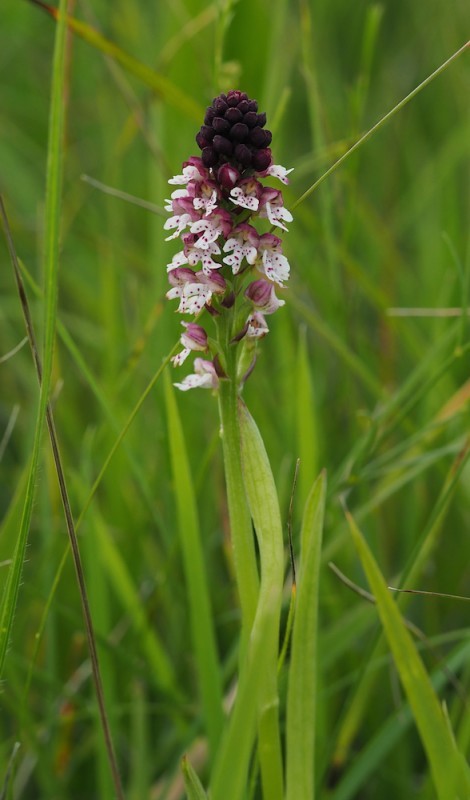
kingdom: Plantae
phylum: Tracheophyta
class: Liliopsida
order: Asparagales
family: Orchidaceae
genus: Neotinea
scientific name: Neotinea ustulata
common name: Burnt orchid
